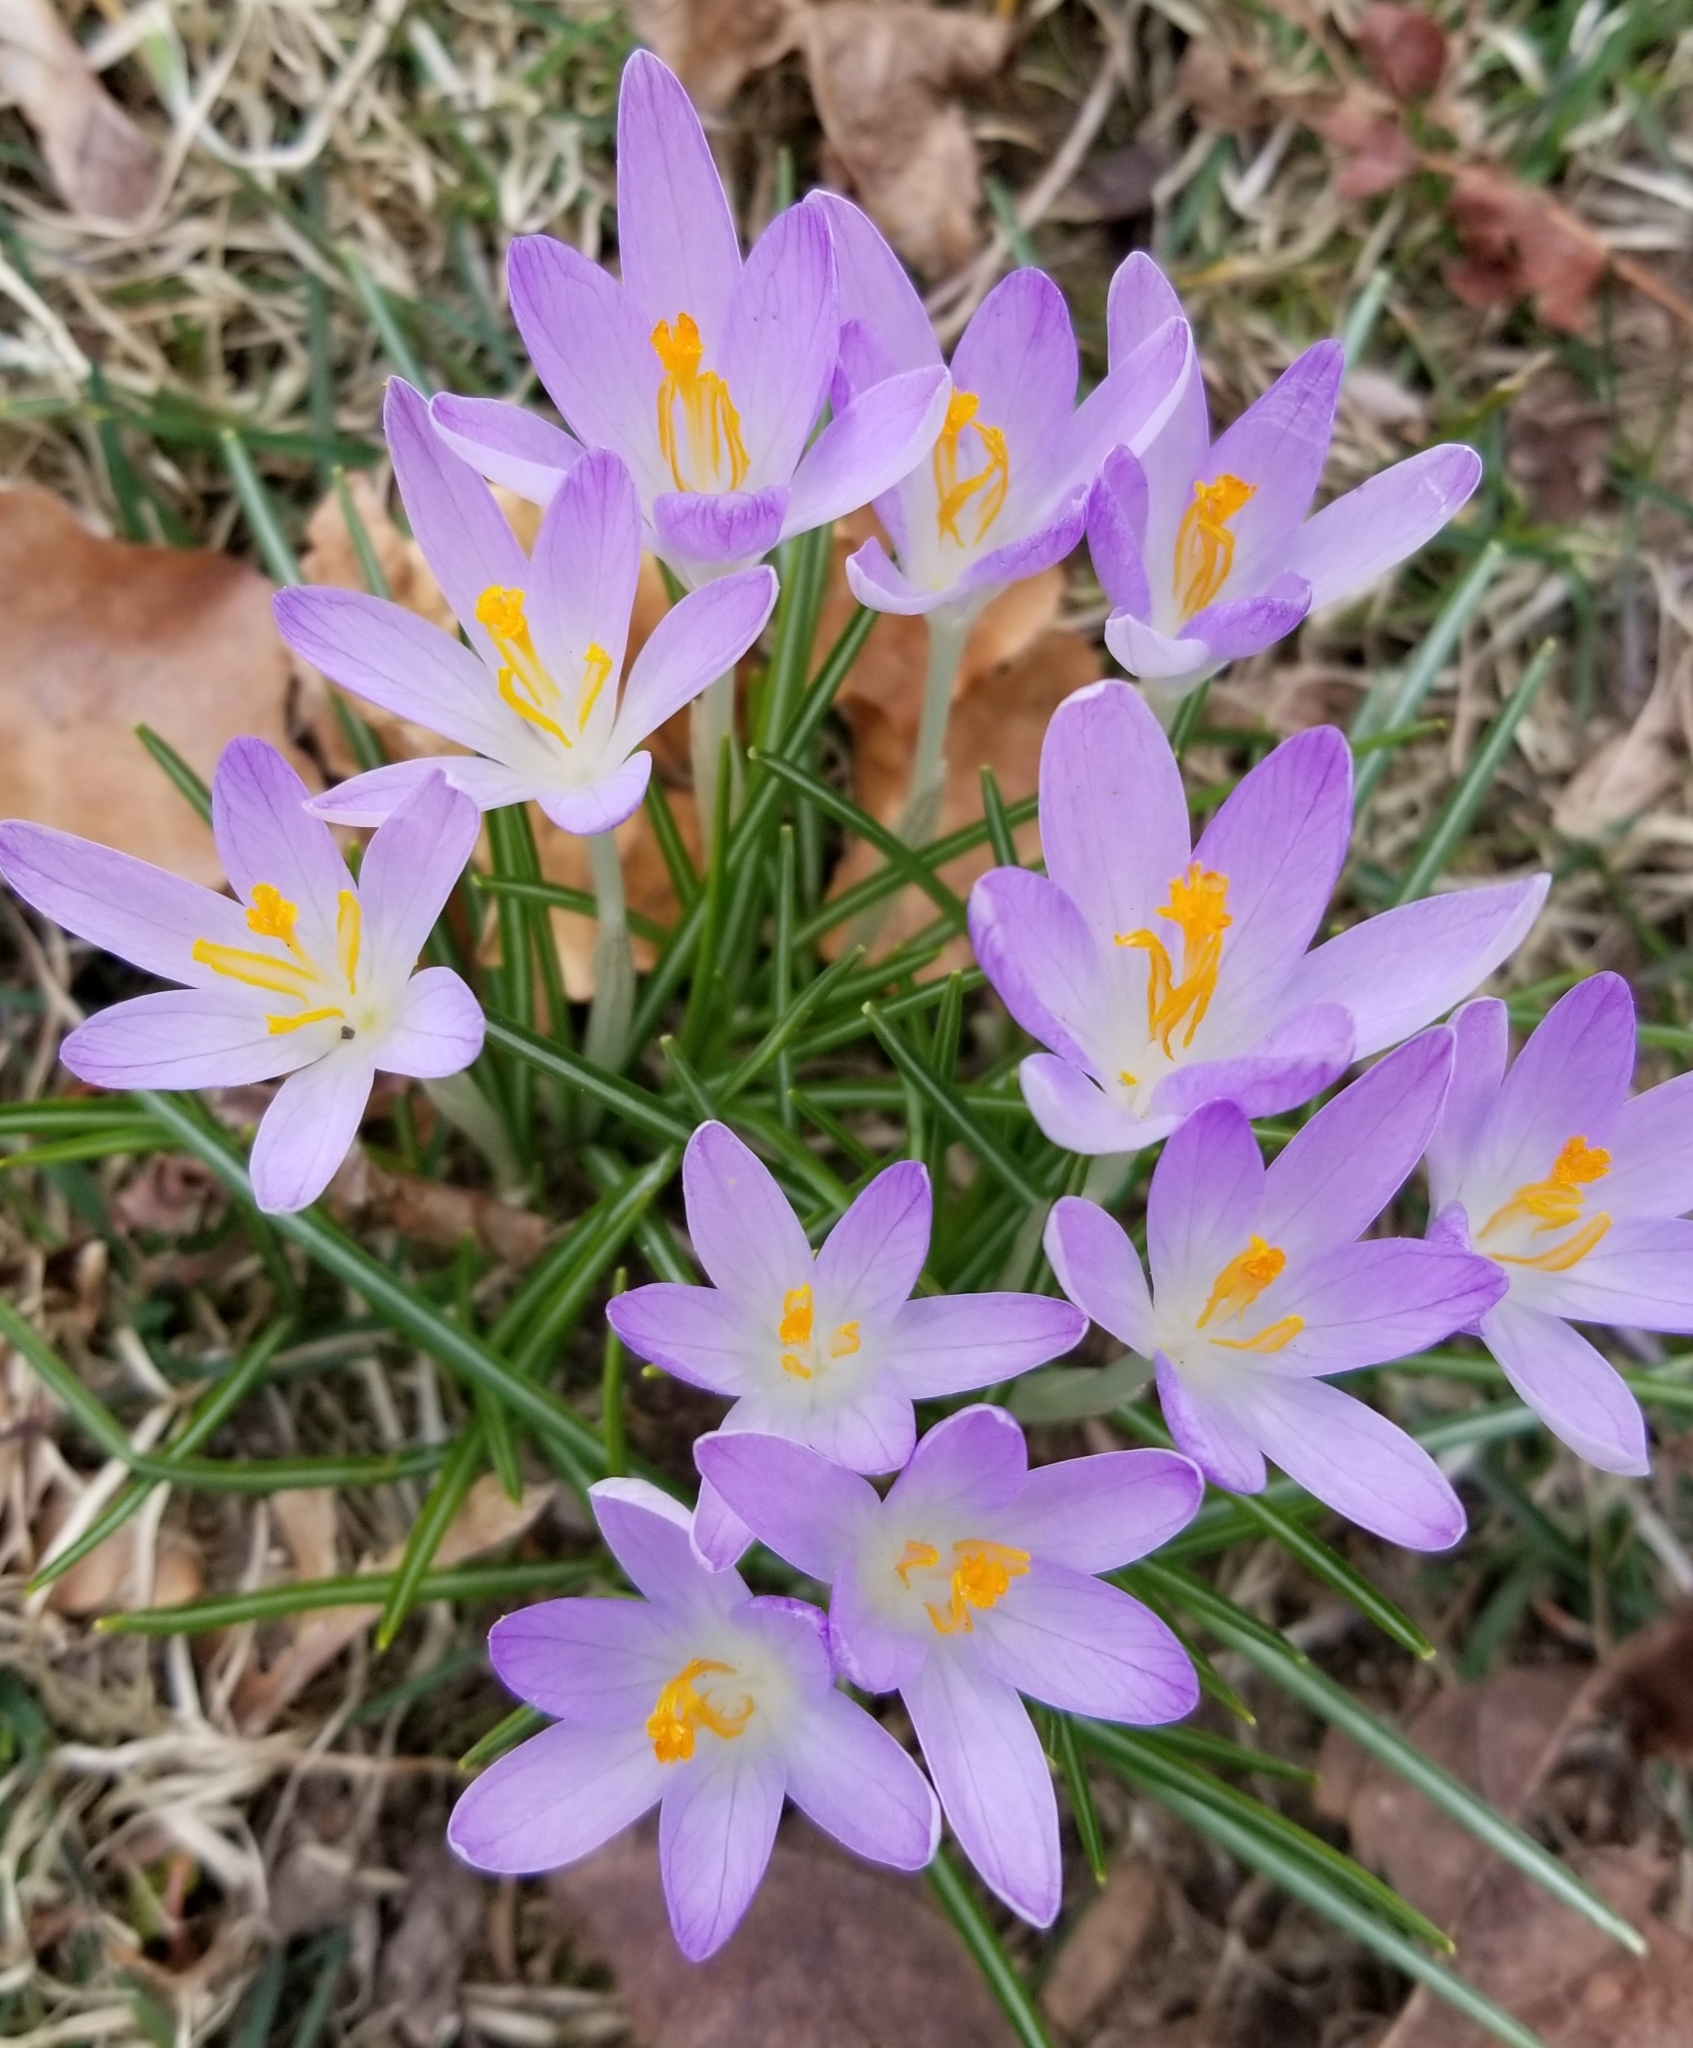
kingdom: Plantae
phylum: Tracheophyta
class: Liliopsida
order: Asparagales
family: Iridaceae
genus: Crocus
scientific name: Crocus tommasinianus
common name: Early crocus
